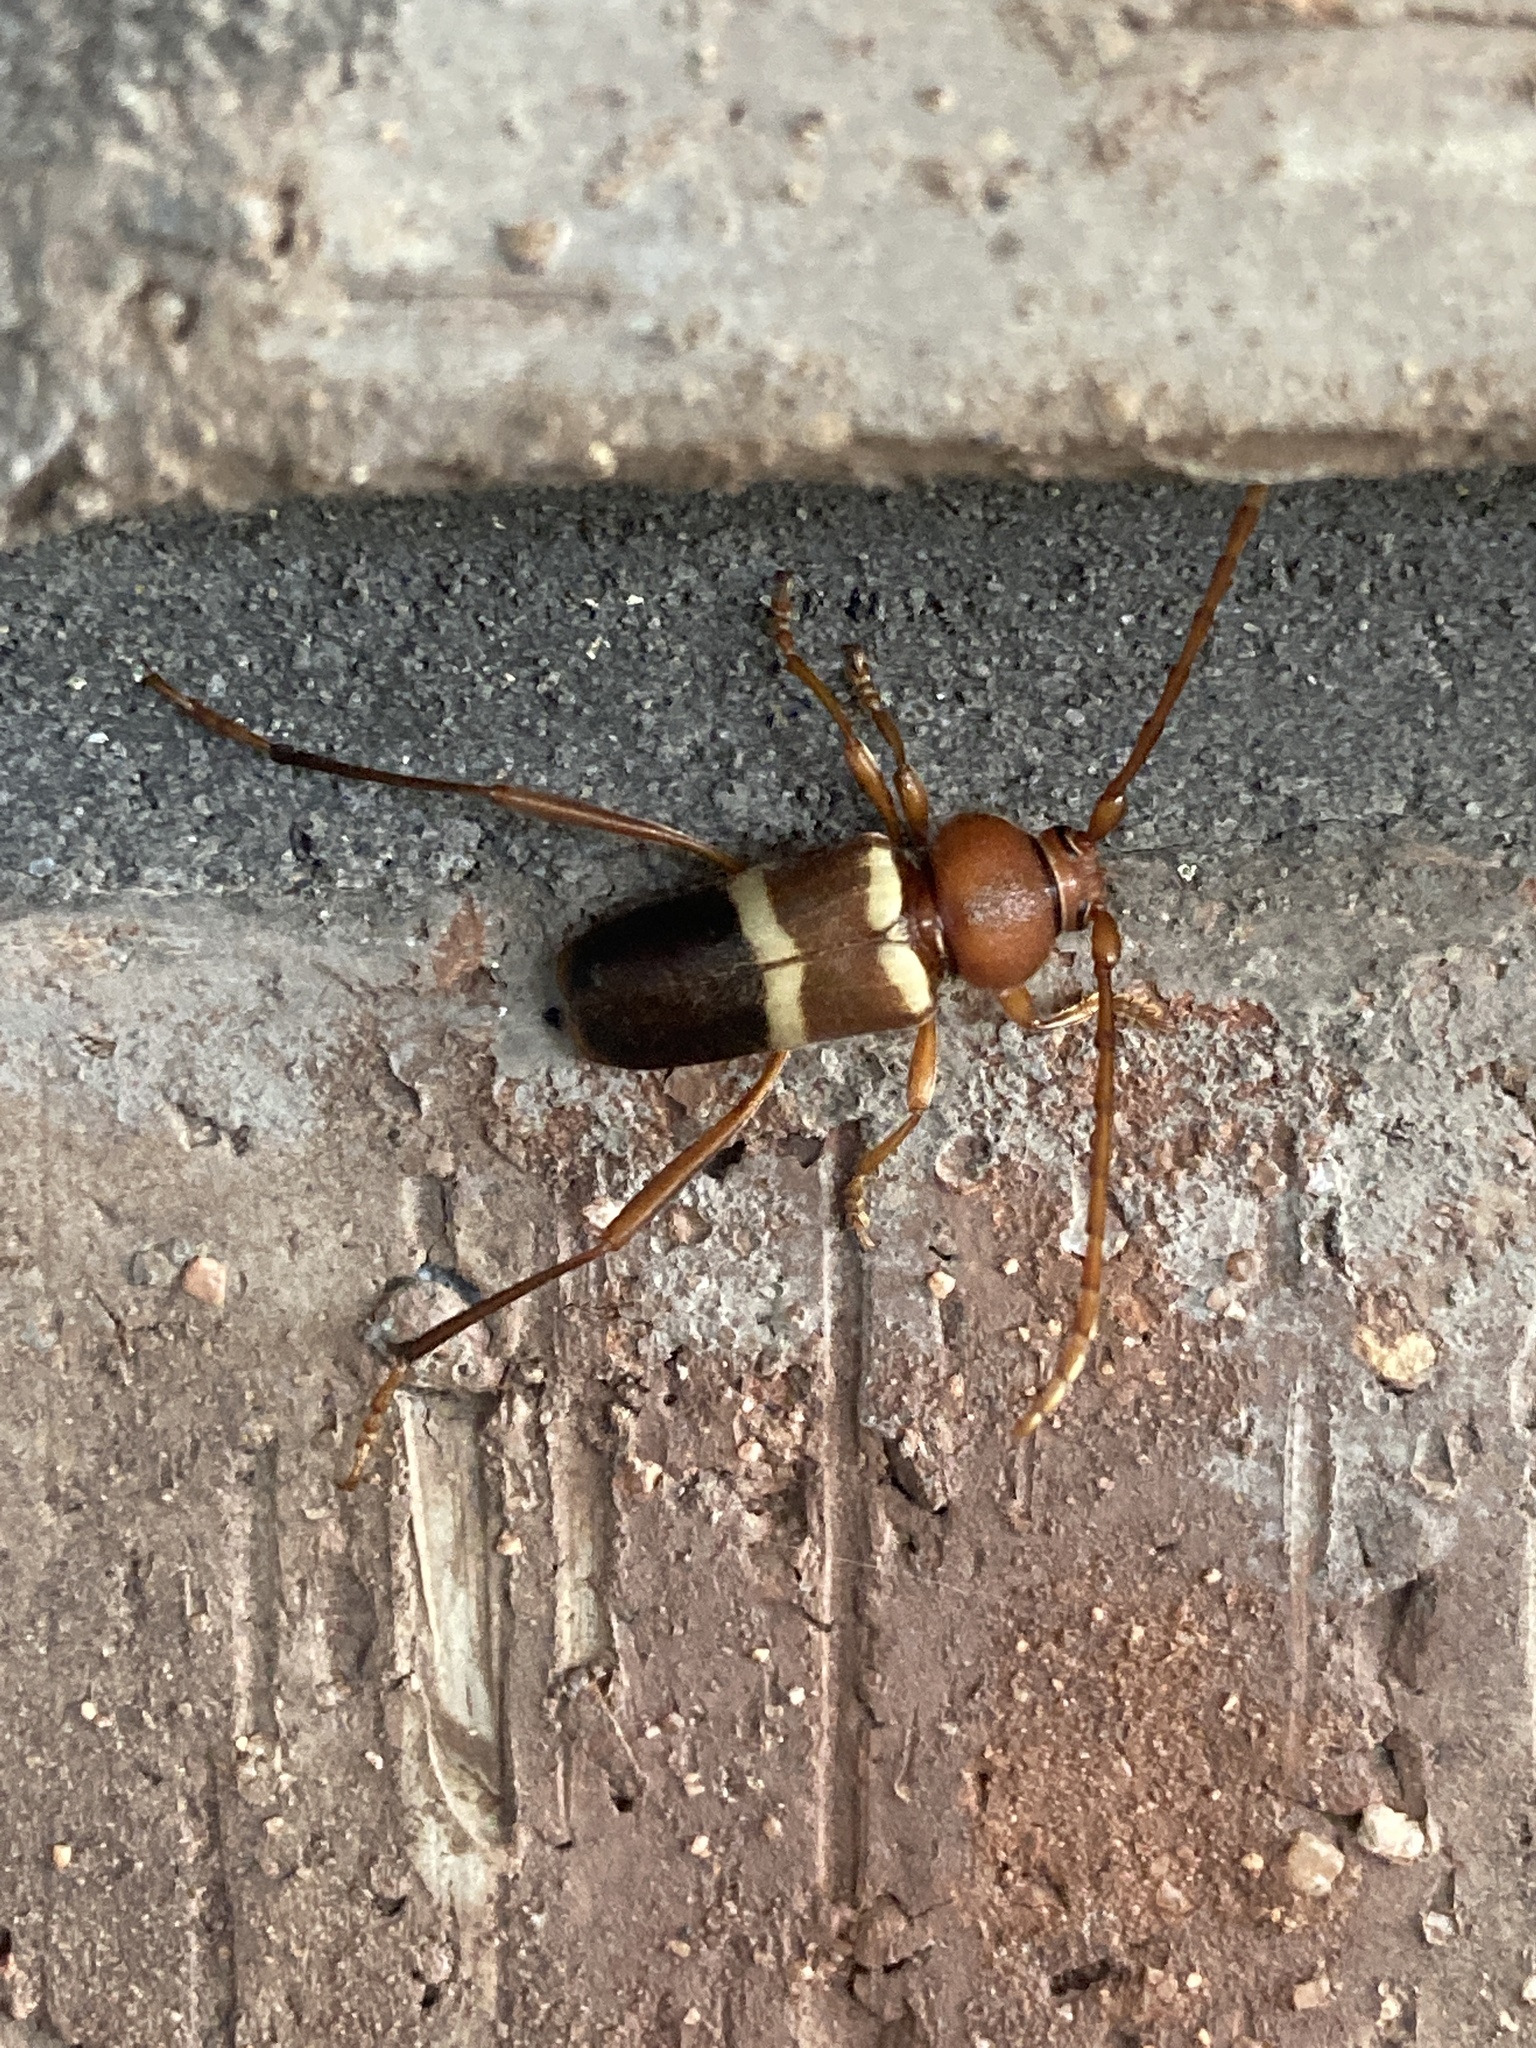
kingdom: Animalia
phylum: Arthropoda
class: Insecta
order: Coleoptera
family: Cerambycidae
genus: Aethecerinus
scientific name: Aethecerinus wilsonii
